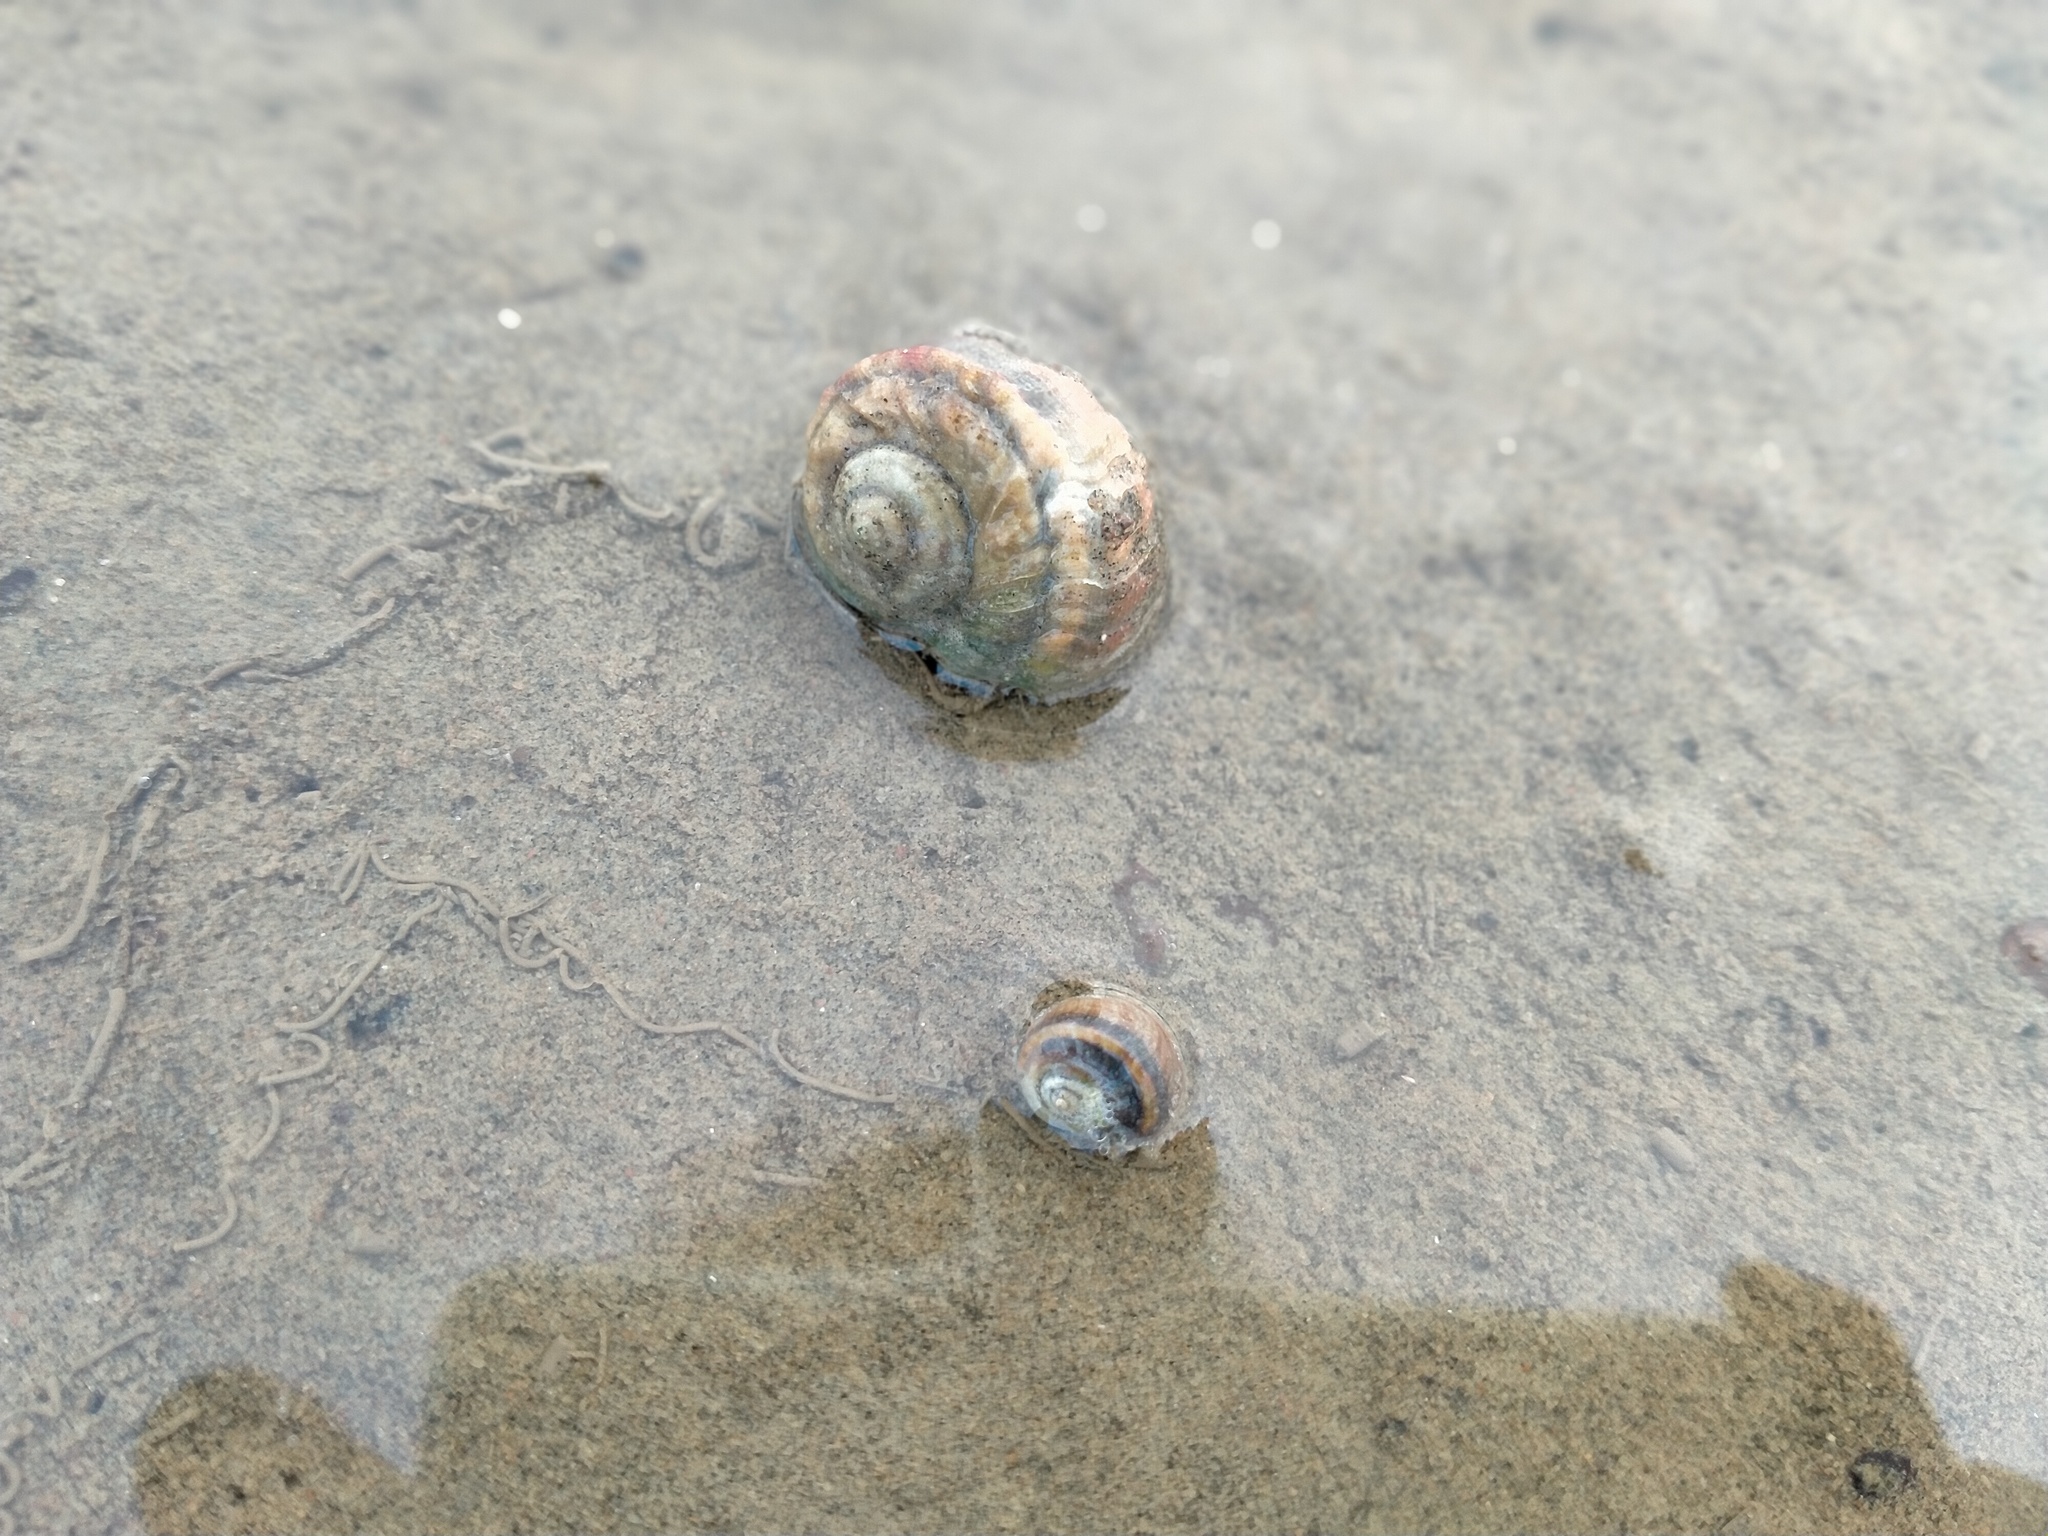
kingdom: Animalia
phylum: Mollusca
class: Gastropoda
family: Amphibolidae
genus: Amphibola
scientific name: Amphibola crenata
